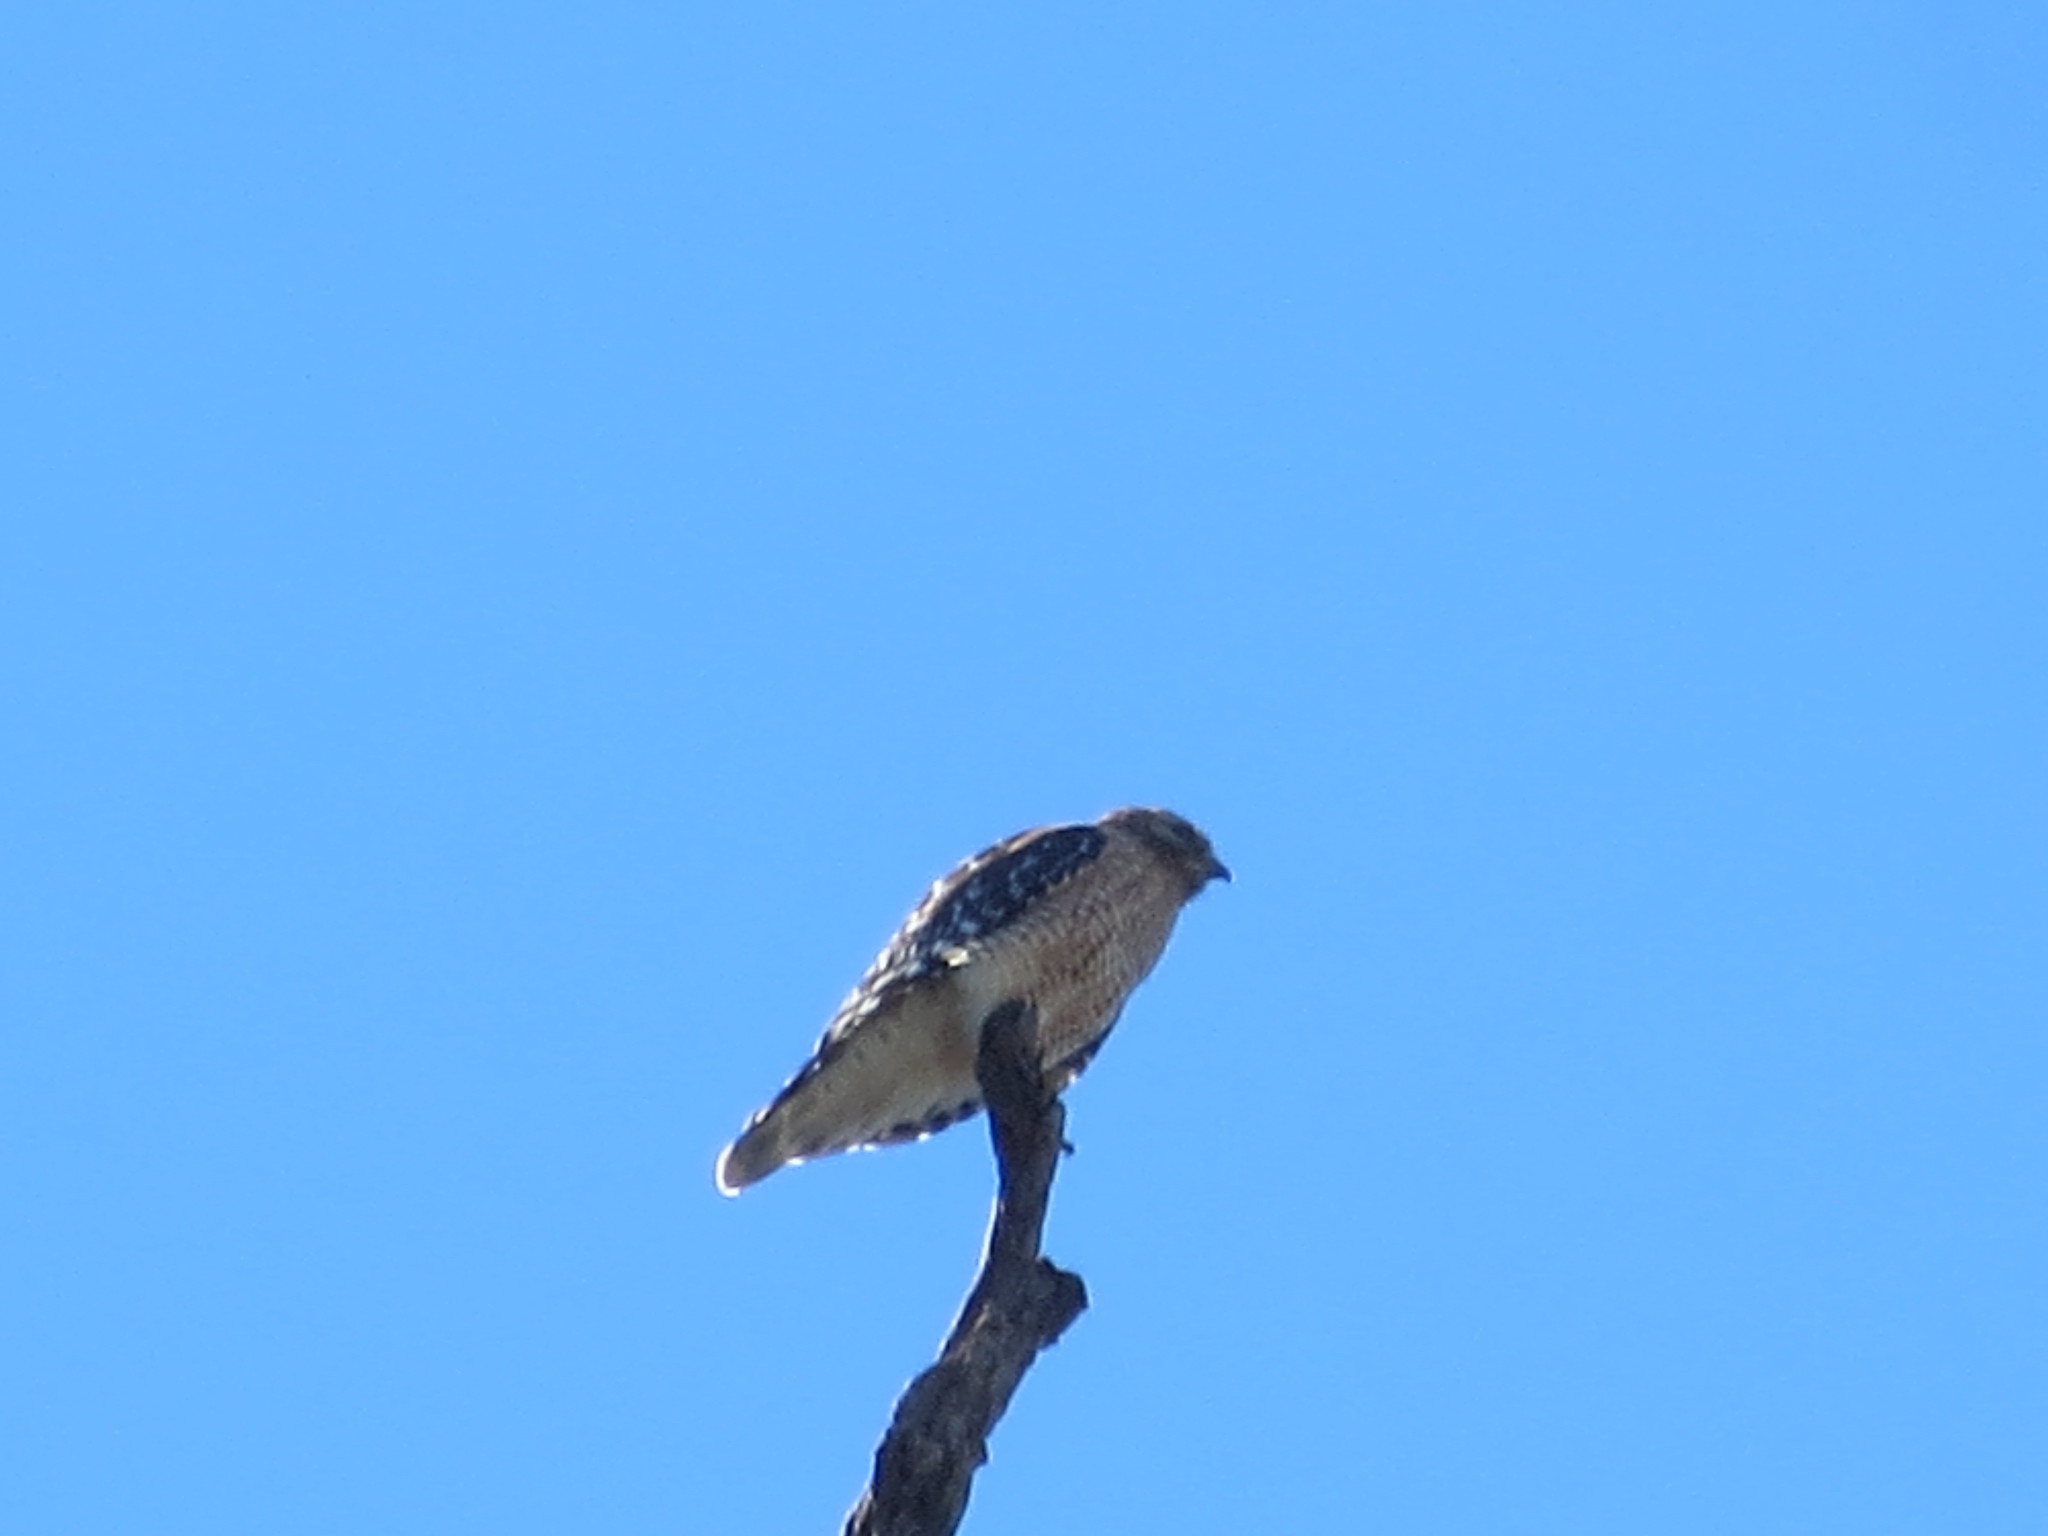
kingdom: Animalia
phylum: Chordata
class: Aves
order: Accipitriformes
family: Accipitridae
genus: Buteo
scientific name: Buteo lineatus
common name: Red-shouldered hawk
